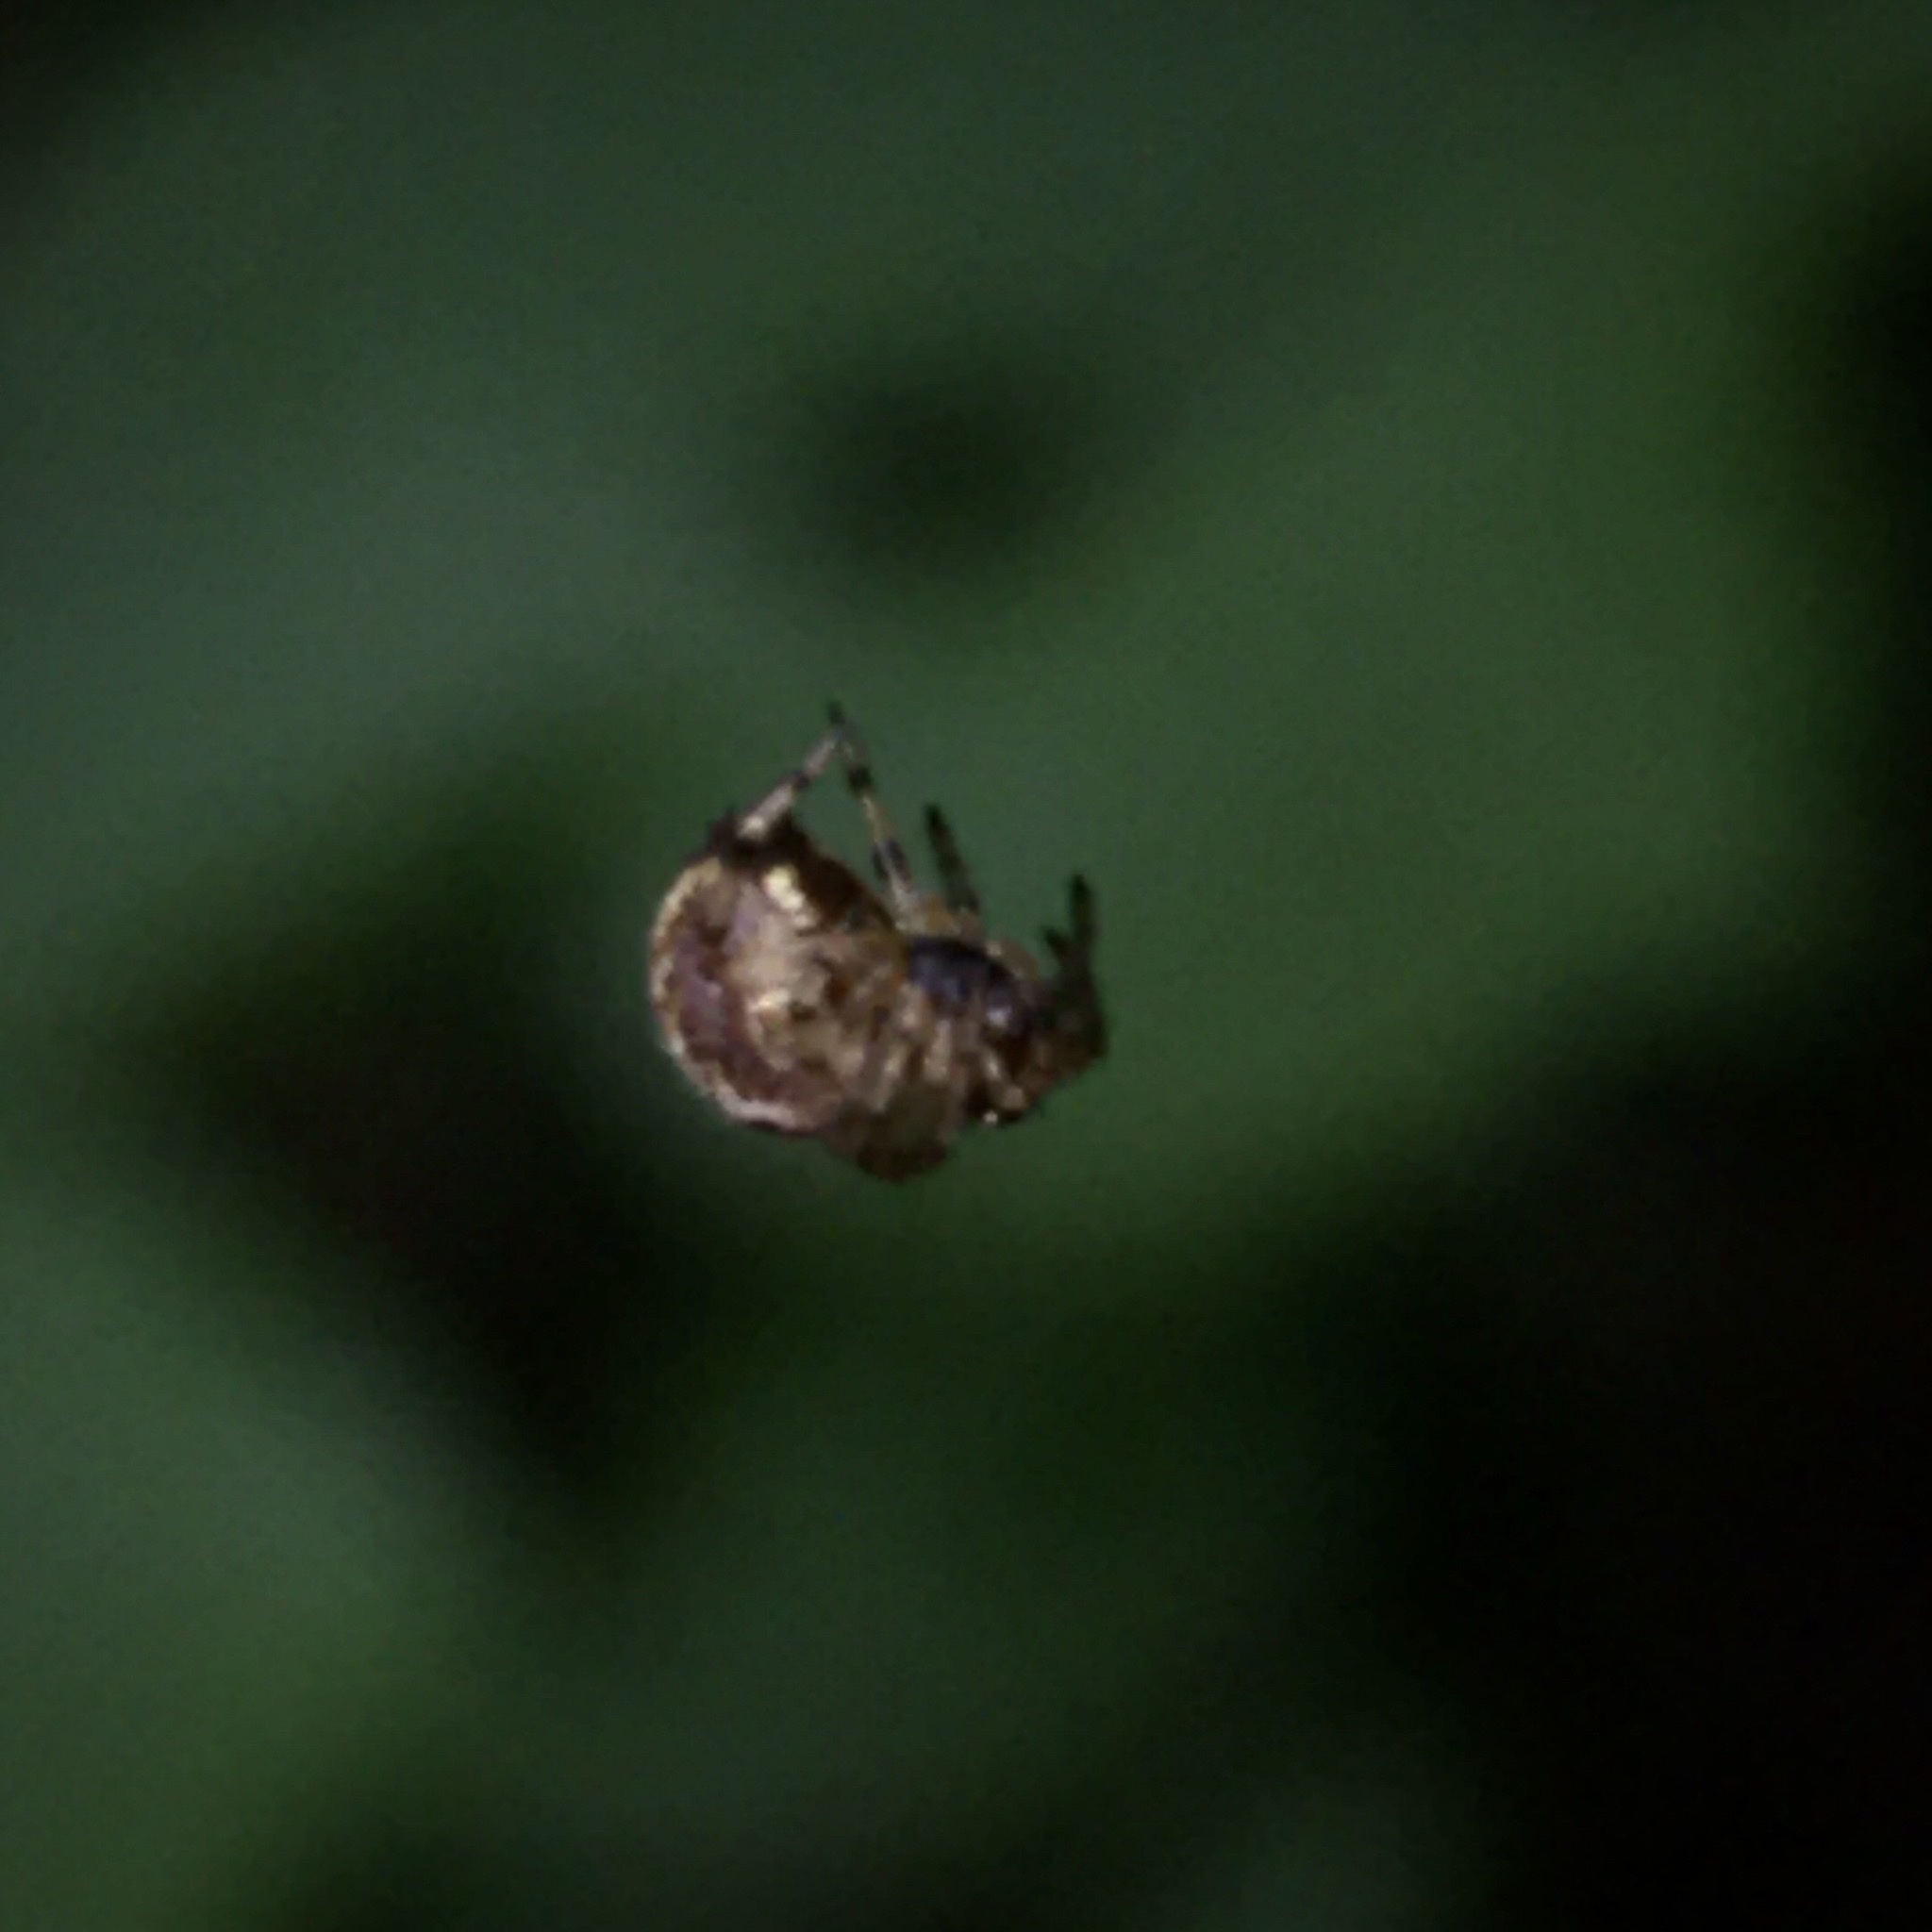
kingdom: Animalia
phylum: Arthropoda
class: Arachnida
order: Araneae
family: Araneidae
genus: Zilla
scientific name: Zilla diodia
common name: Zilla diodia
